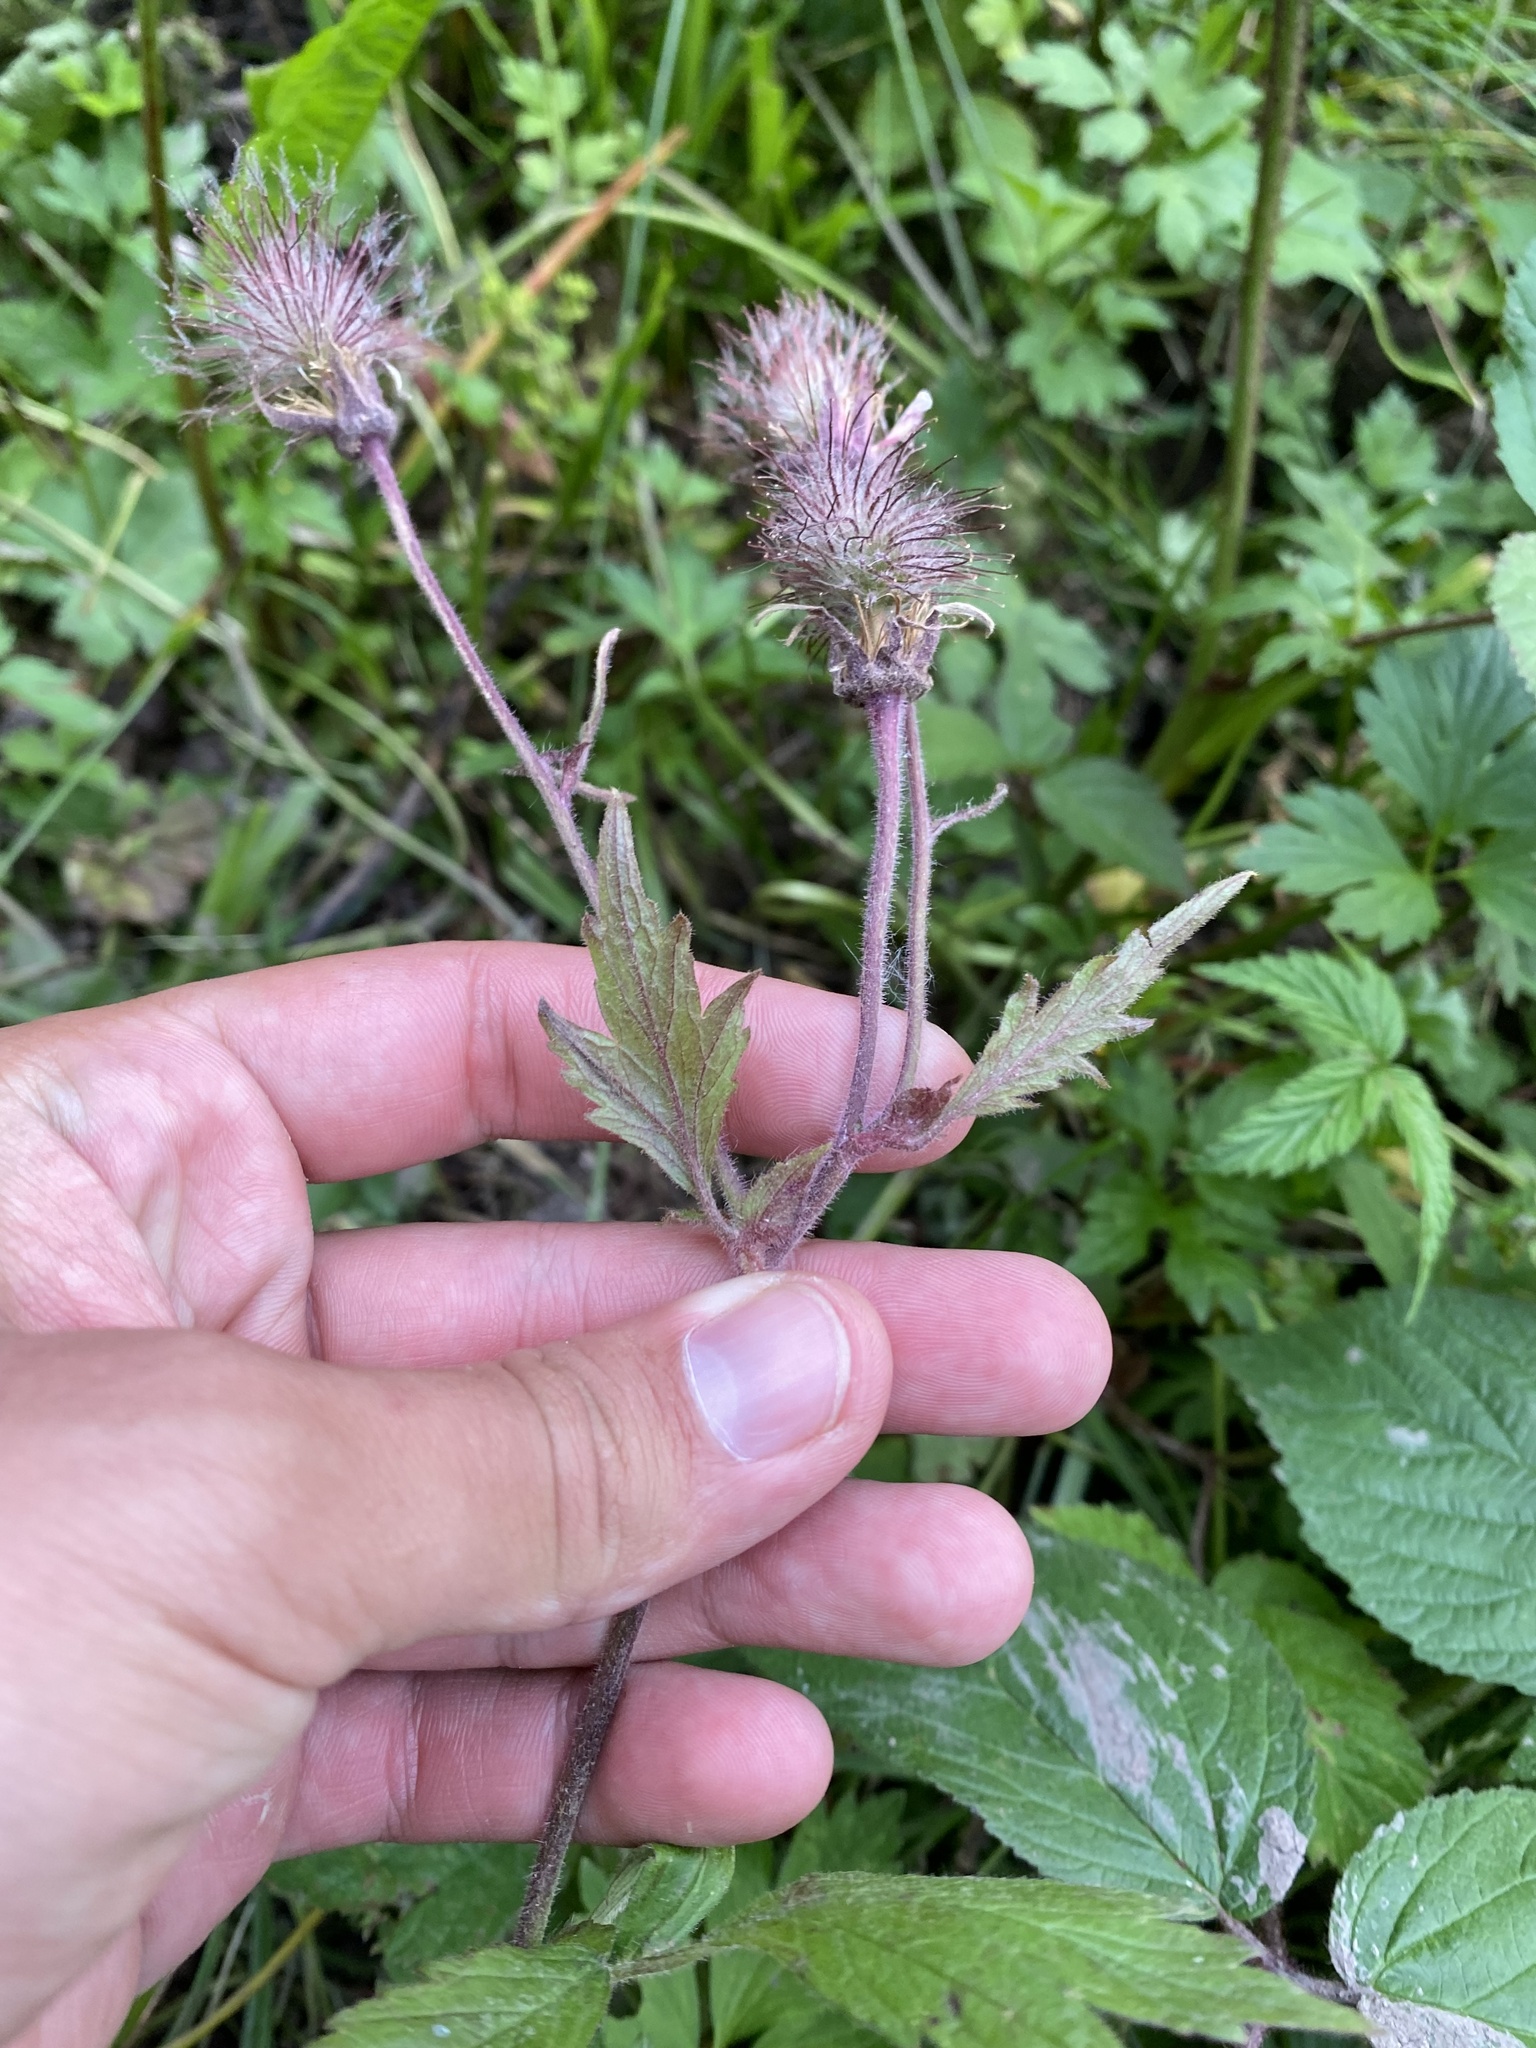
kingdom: Plantae
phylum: Tracheophyta
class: Magnoliopsida
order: Rosales
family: Rosaceae
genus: Geum
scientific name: Geum rivale
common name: Water avens
